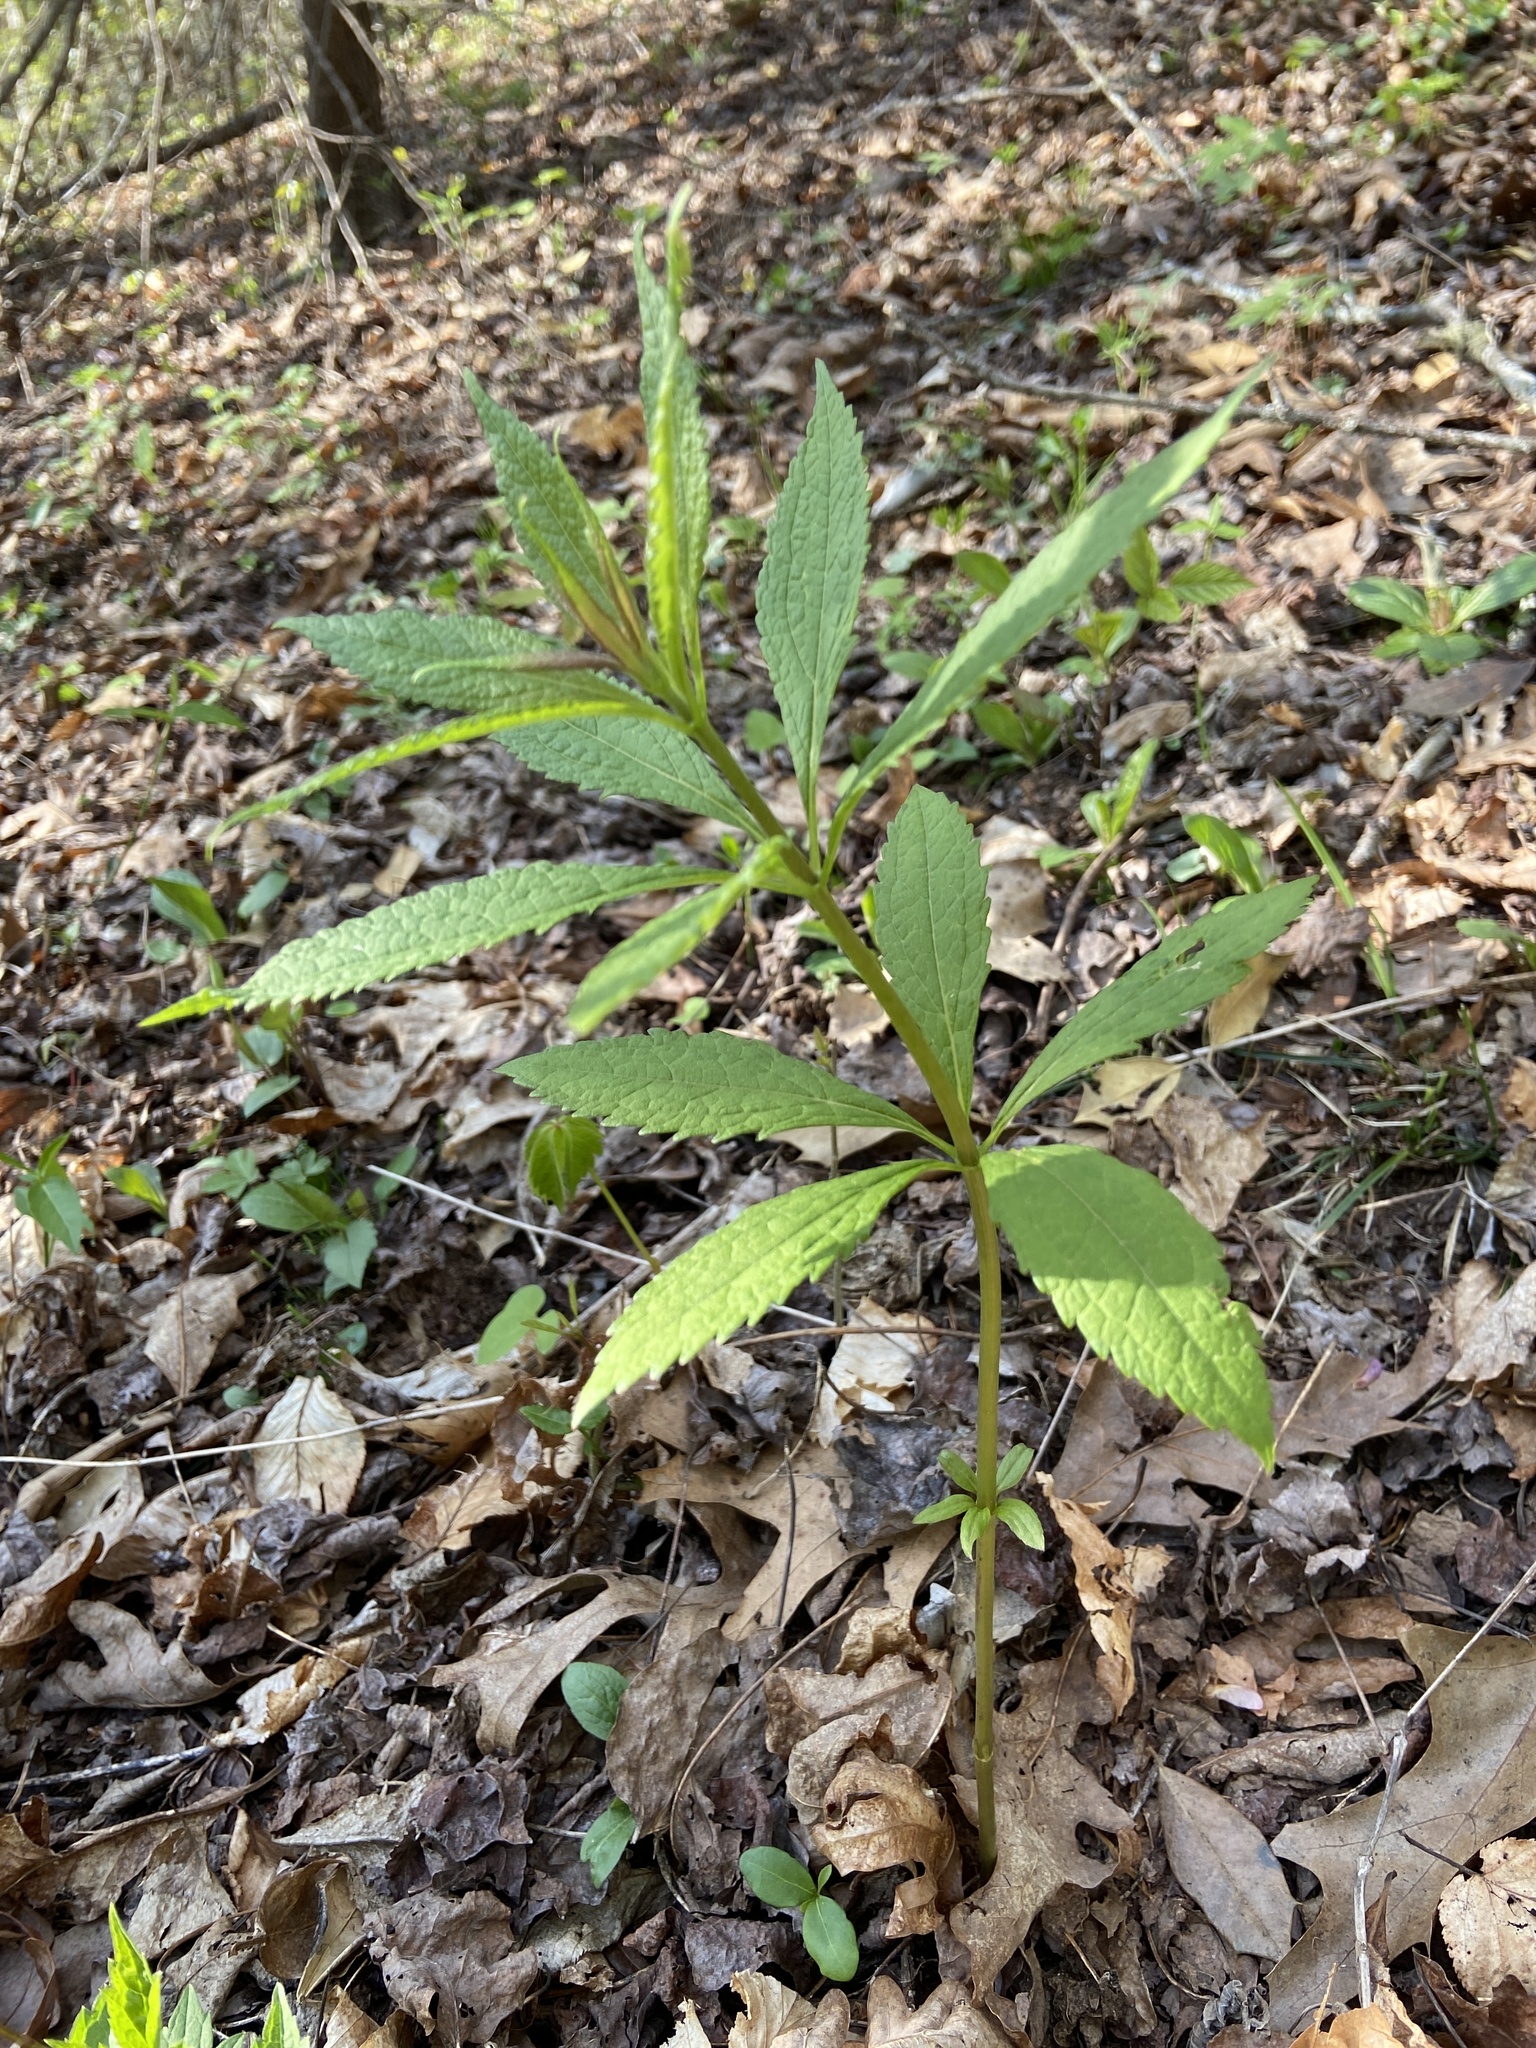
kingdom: Plantae
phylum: Tracheophyta
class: Magnoliopsida
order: Lamiales
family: Plantaginaceae
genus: Veronicastrum
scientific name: Veronicastrum virginicum
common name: Blackroot
